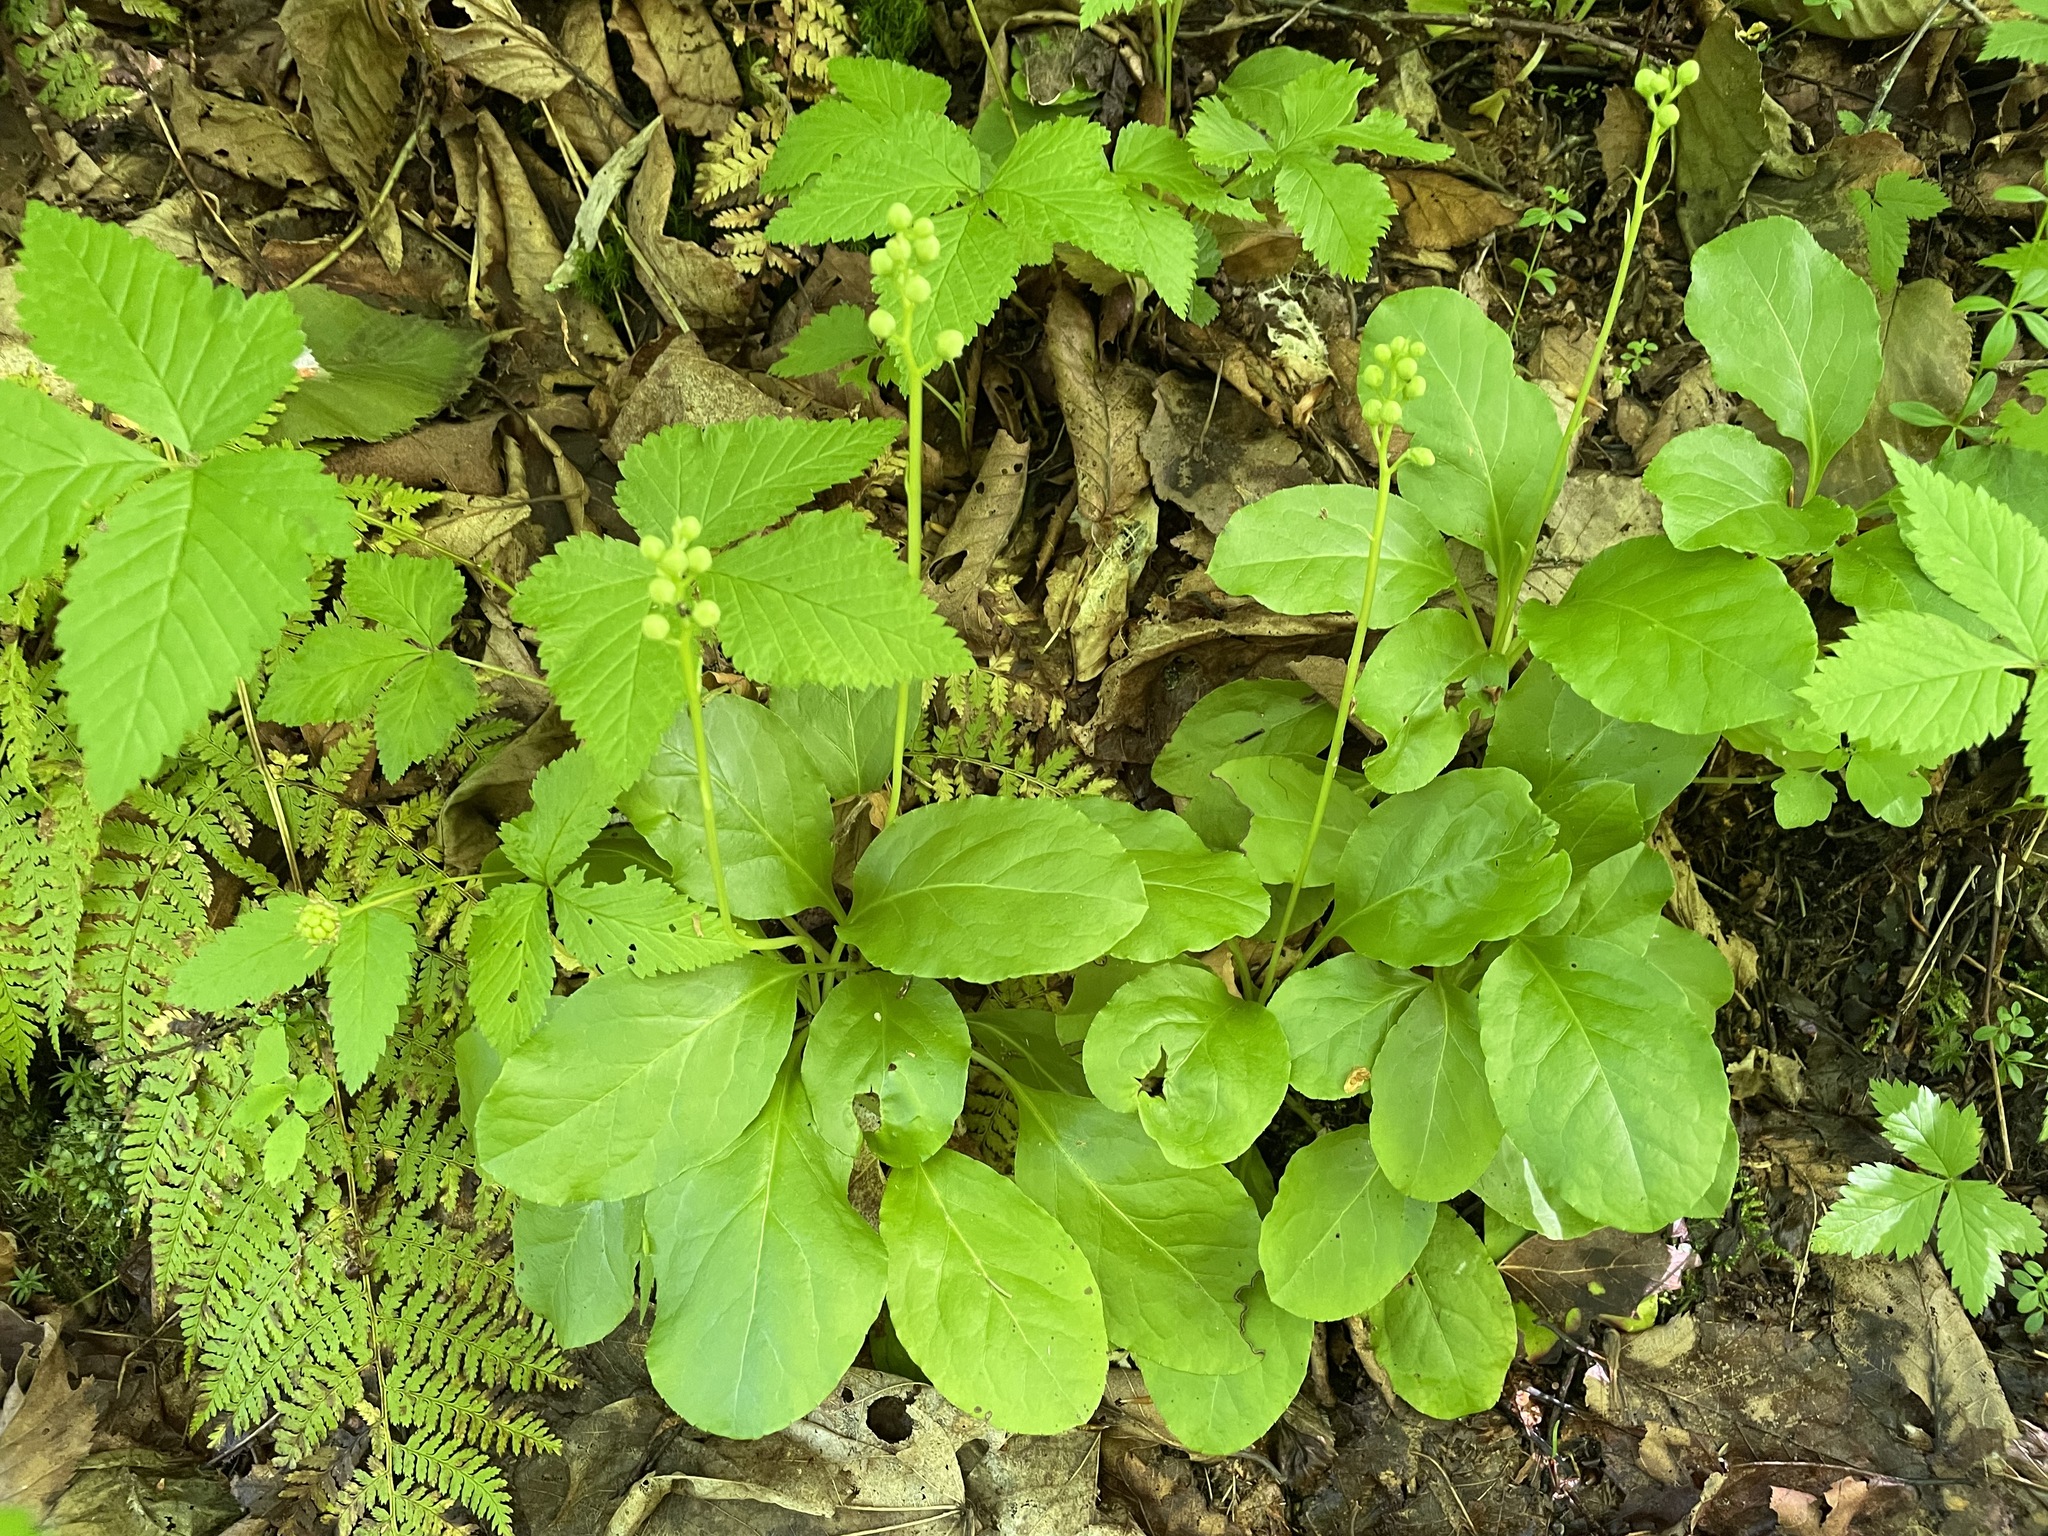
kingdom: Plantae
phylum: Tracheophyta
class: Magnoliopsida
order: Ericales
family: Ericaceae
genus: Pyrola
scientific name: Pyrola elliptica
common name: Shinleaf
